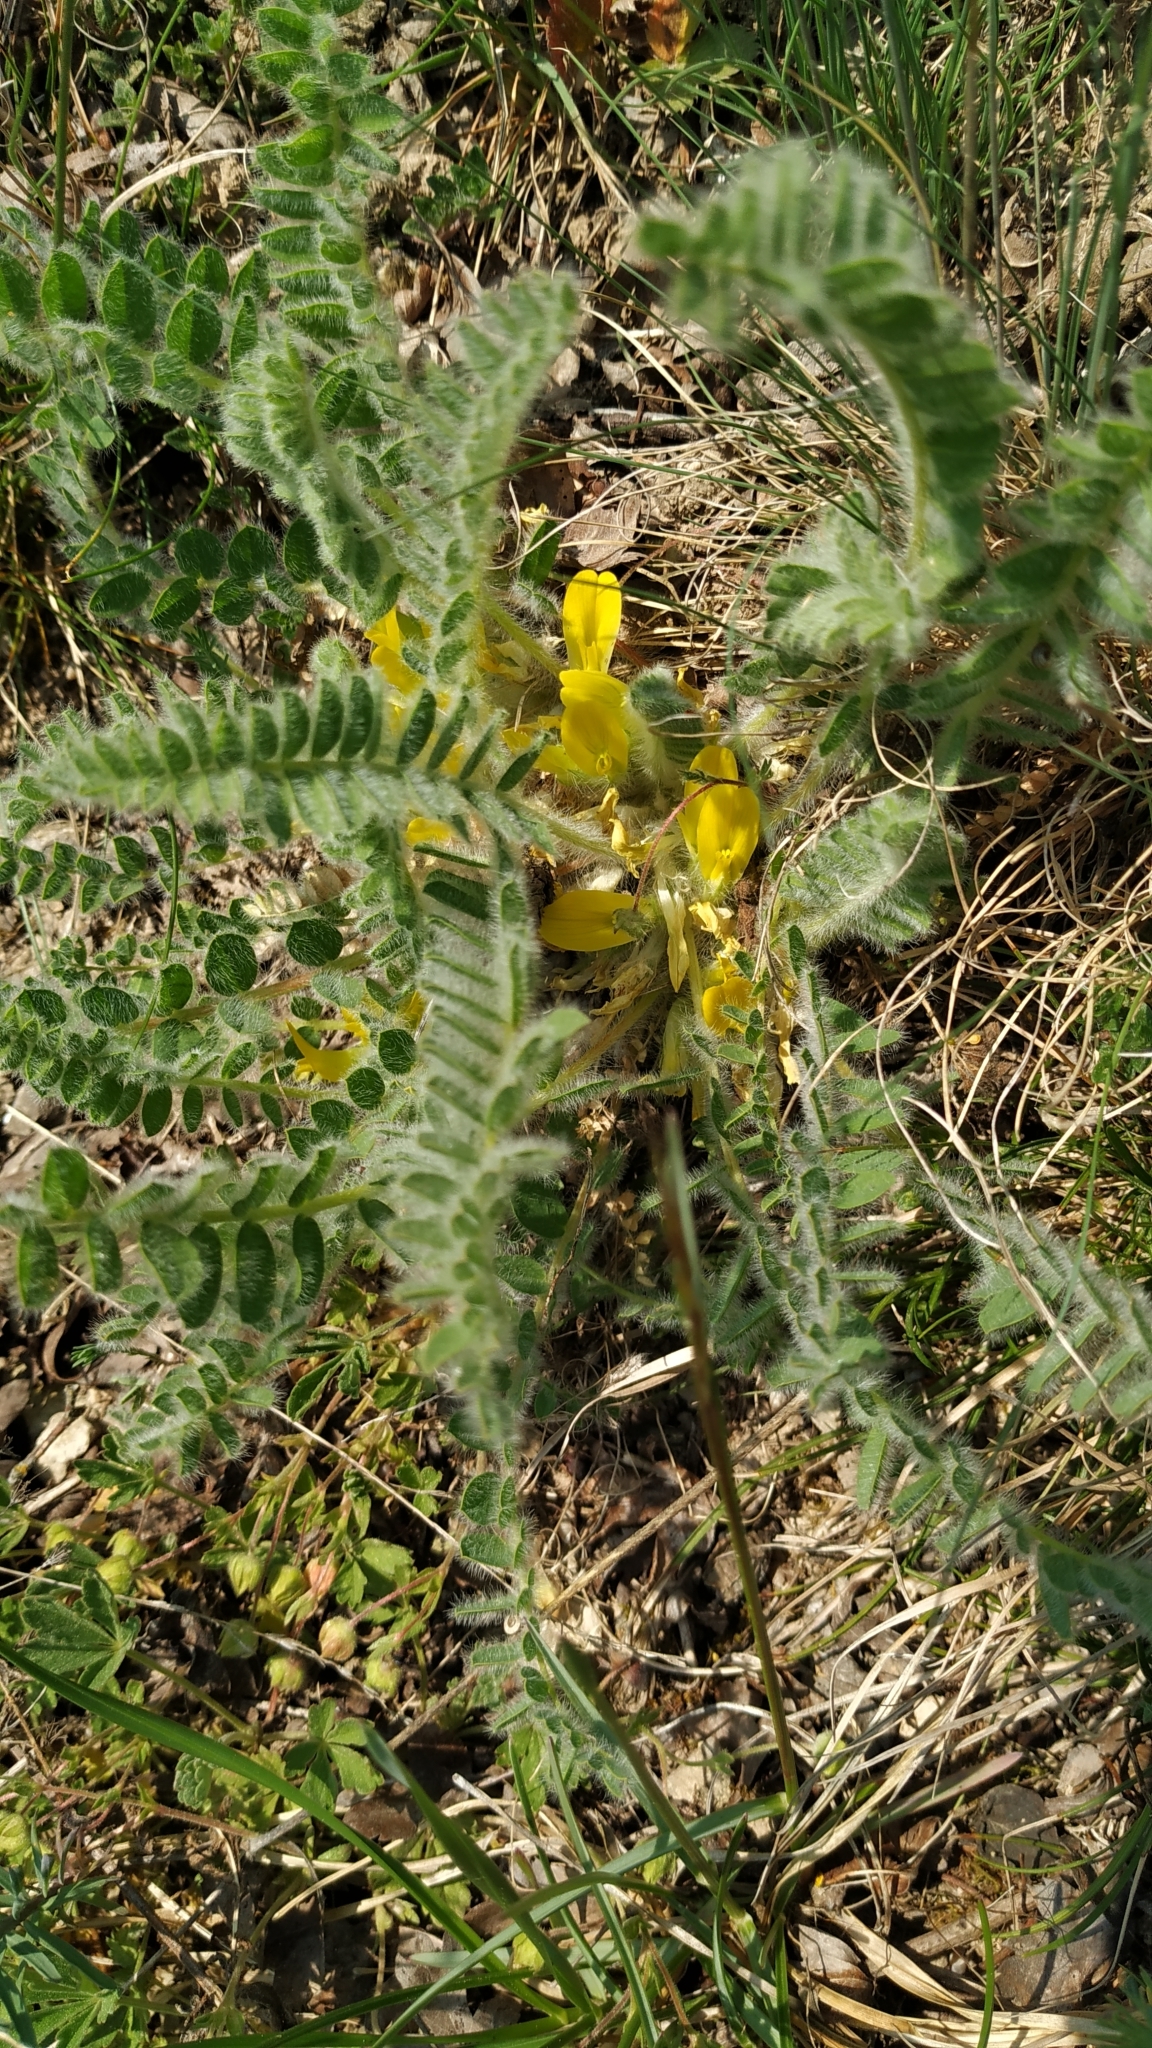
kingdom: Plantae
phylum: Tracheophyta
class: Magnoliopsida
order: Fabales
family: Fabaceae
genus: Astragalus
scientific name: Astragalus exscapus
